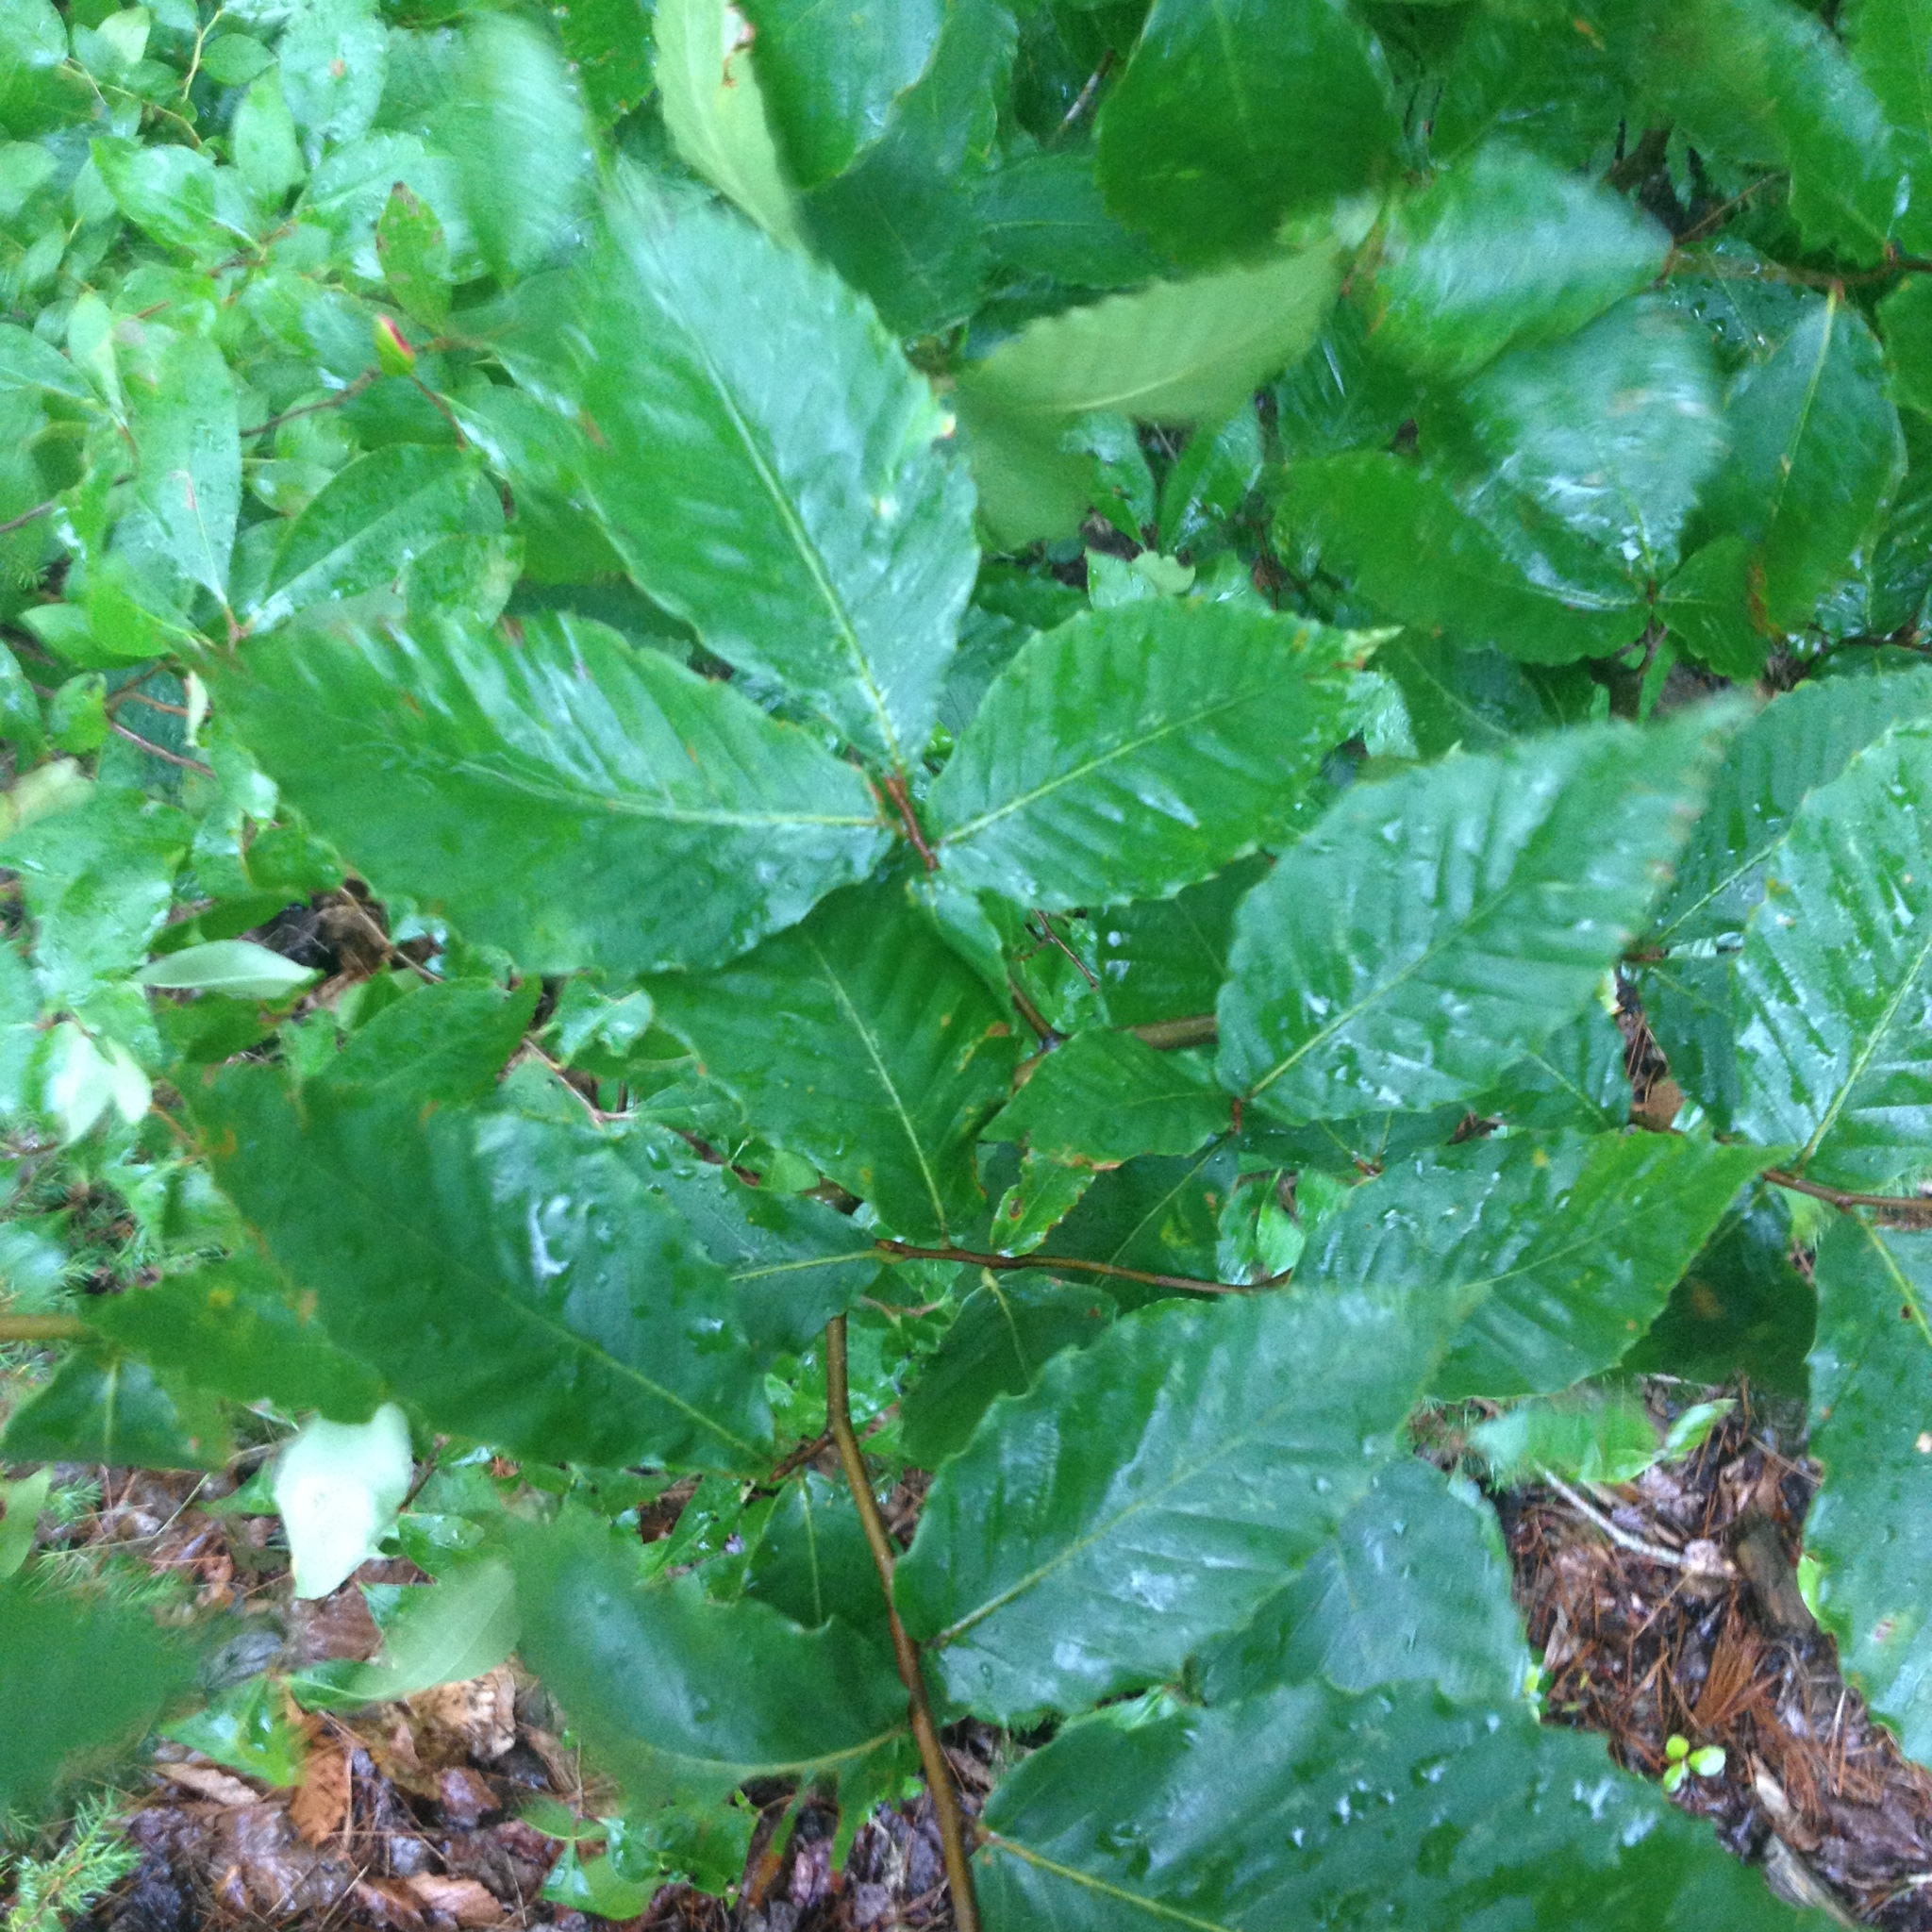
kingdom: Plantae
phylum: Tracheophyta
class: Magnoliopsida
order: Fagales
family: Fagaceae
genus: Fagus
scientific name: Fagus grandifolia
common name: American beech
